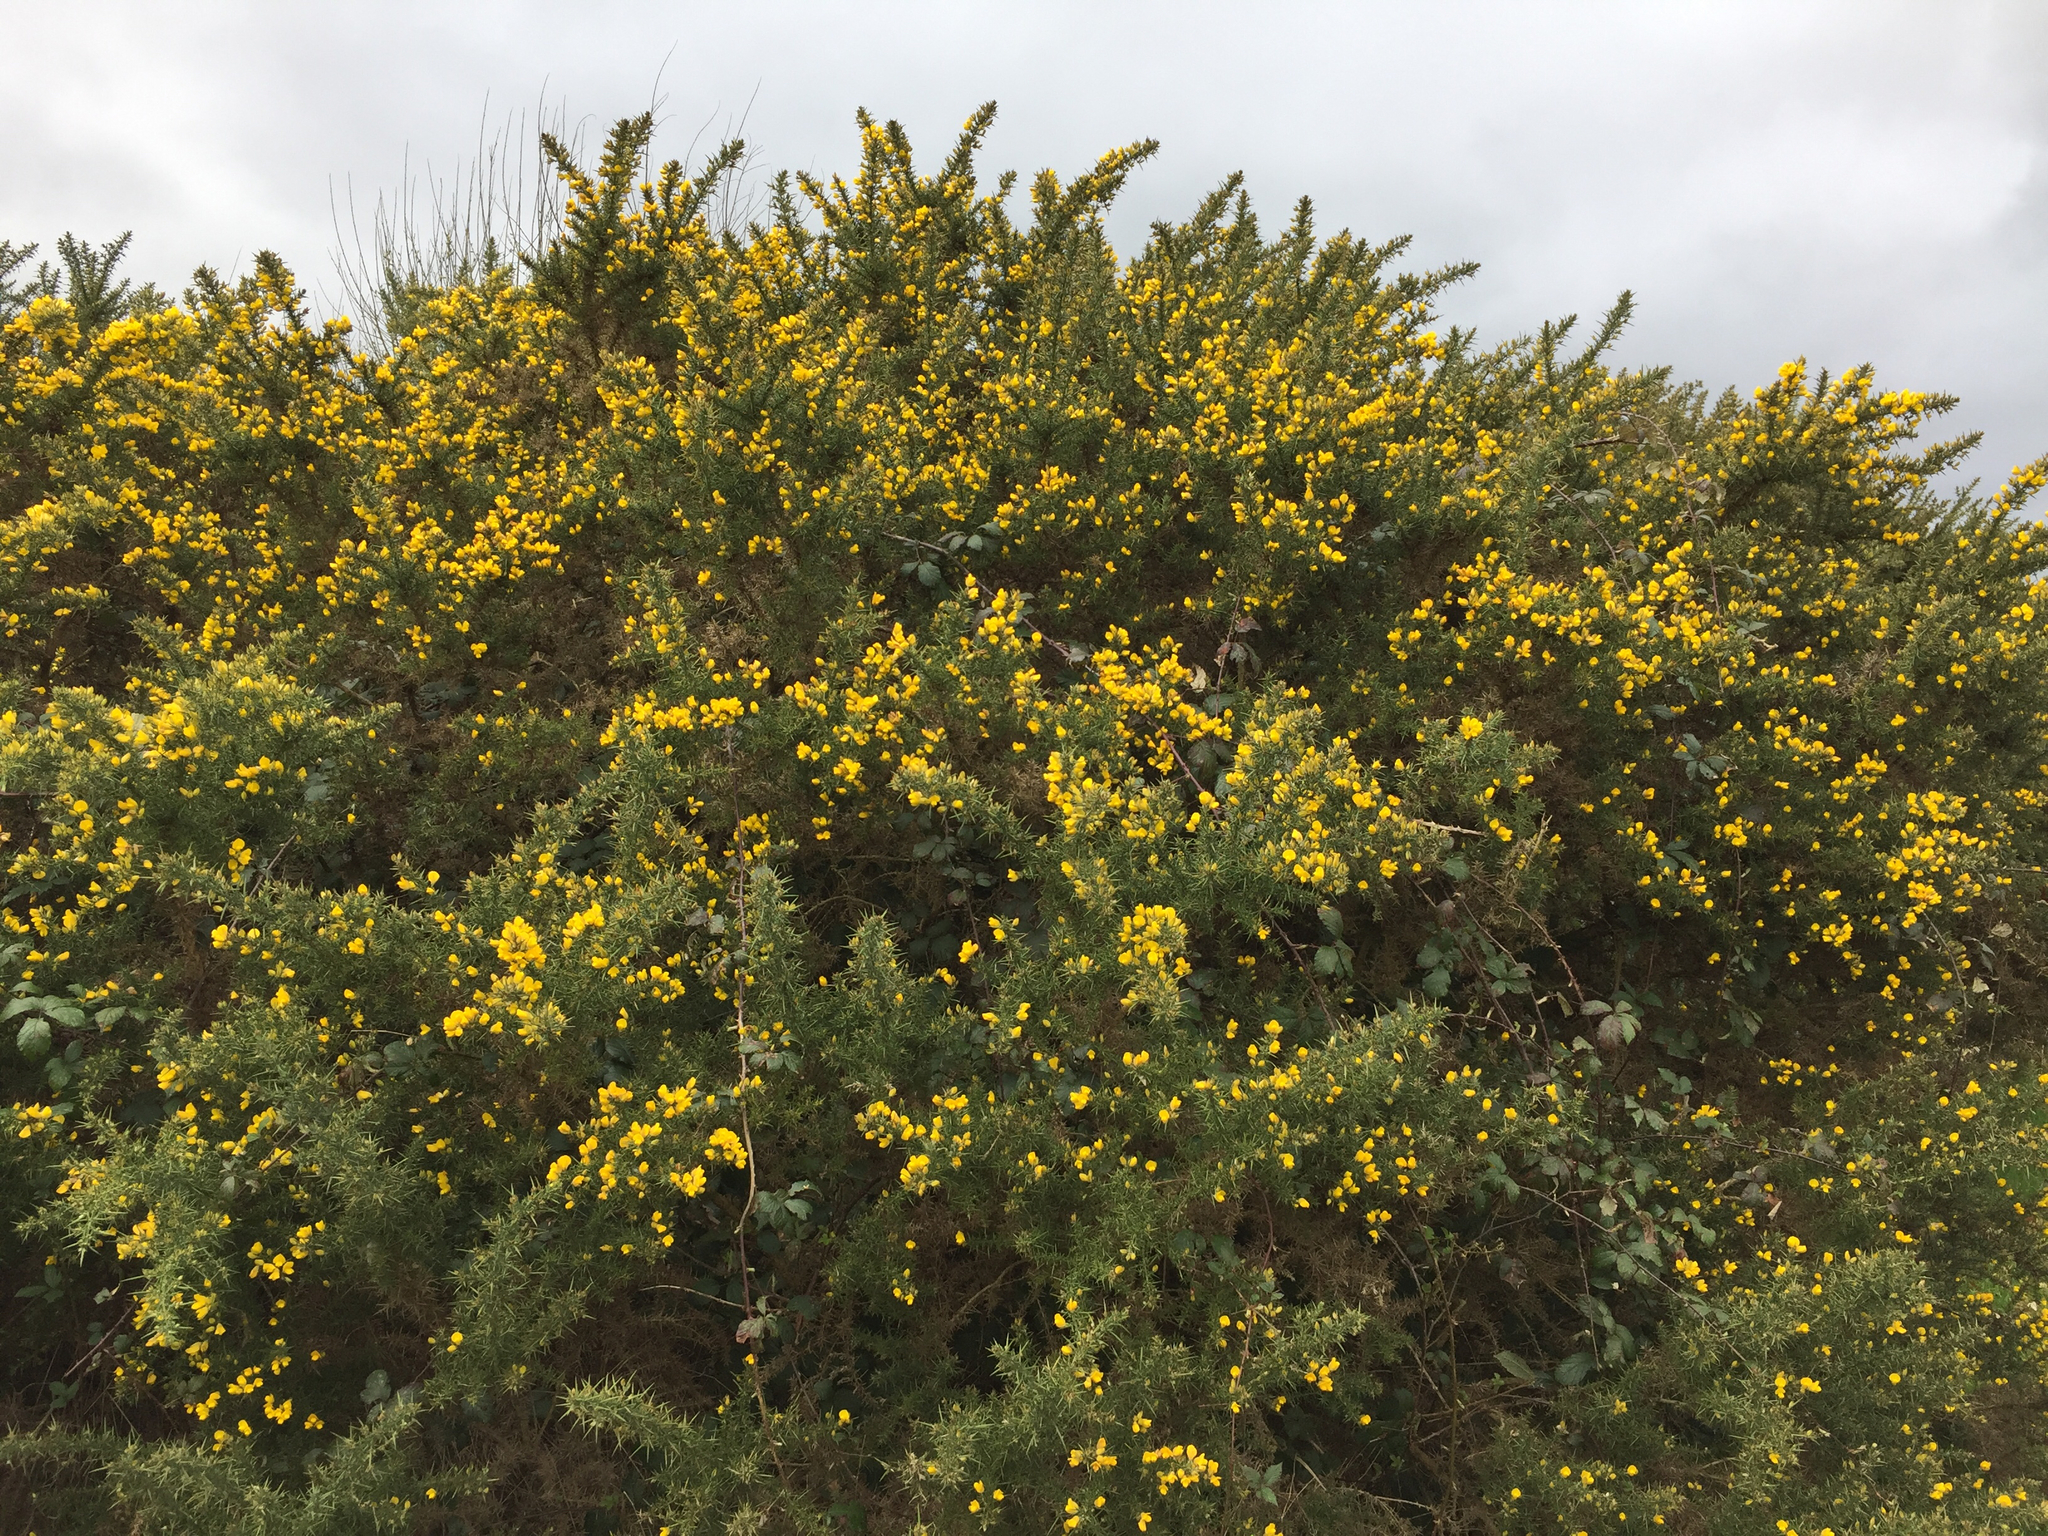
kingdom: Plantae
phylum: Tracheophyta
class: Magnoliopsida
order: Fabales
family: Fabaceae
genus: Ulex
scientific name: Ulex europaeus
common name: Common gorse
